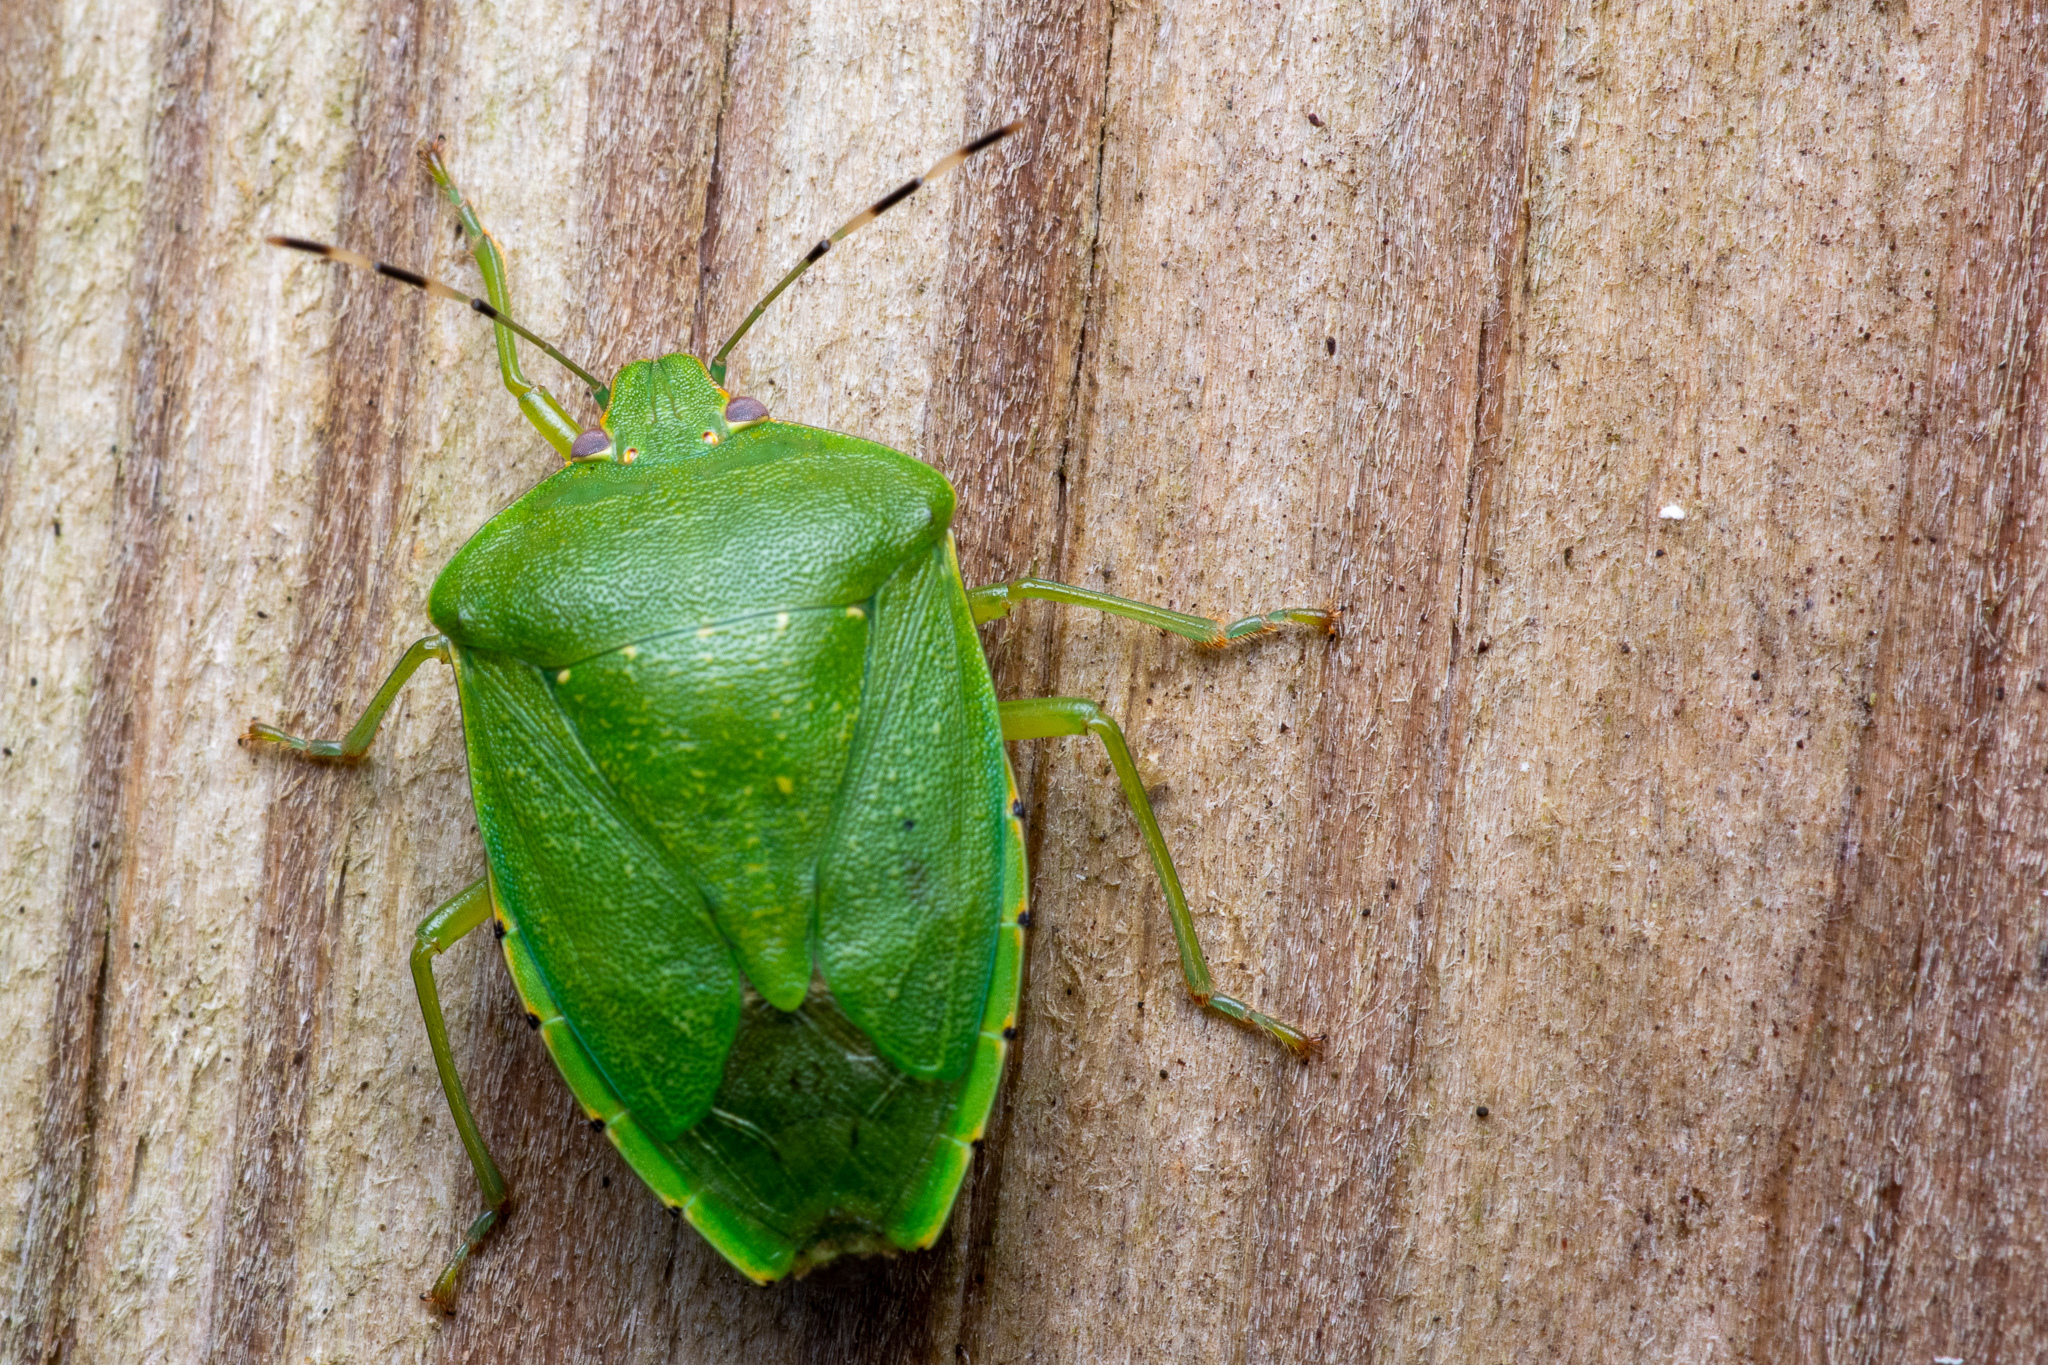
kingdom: Animalia
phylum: Arthropoda
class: Insecta
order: Hemiptera
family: Pentatomidae
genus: Chinavia
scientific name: Chinavia hilaris
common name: Green stink bug
